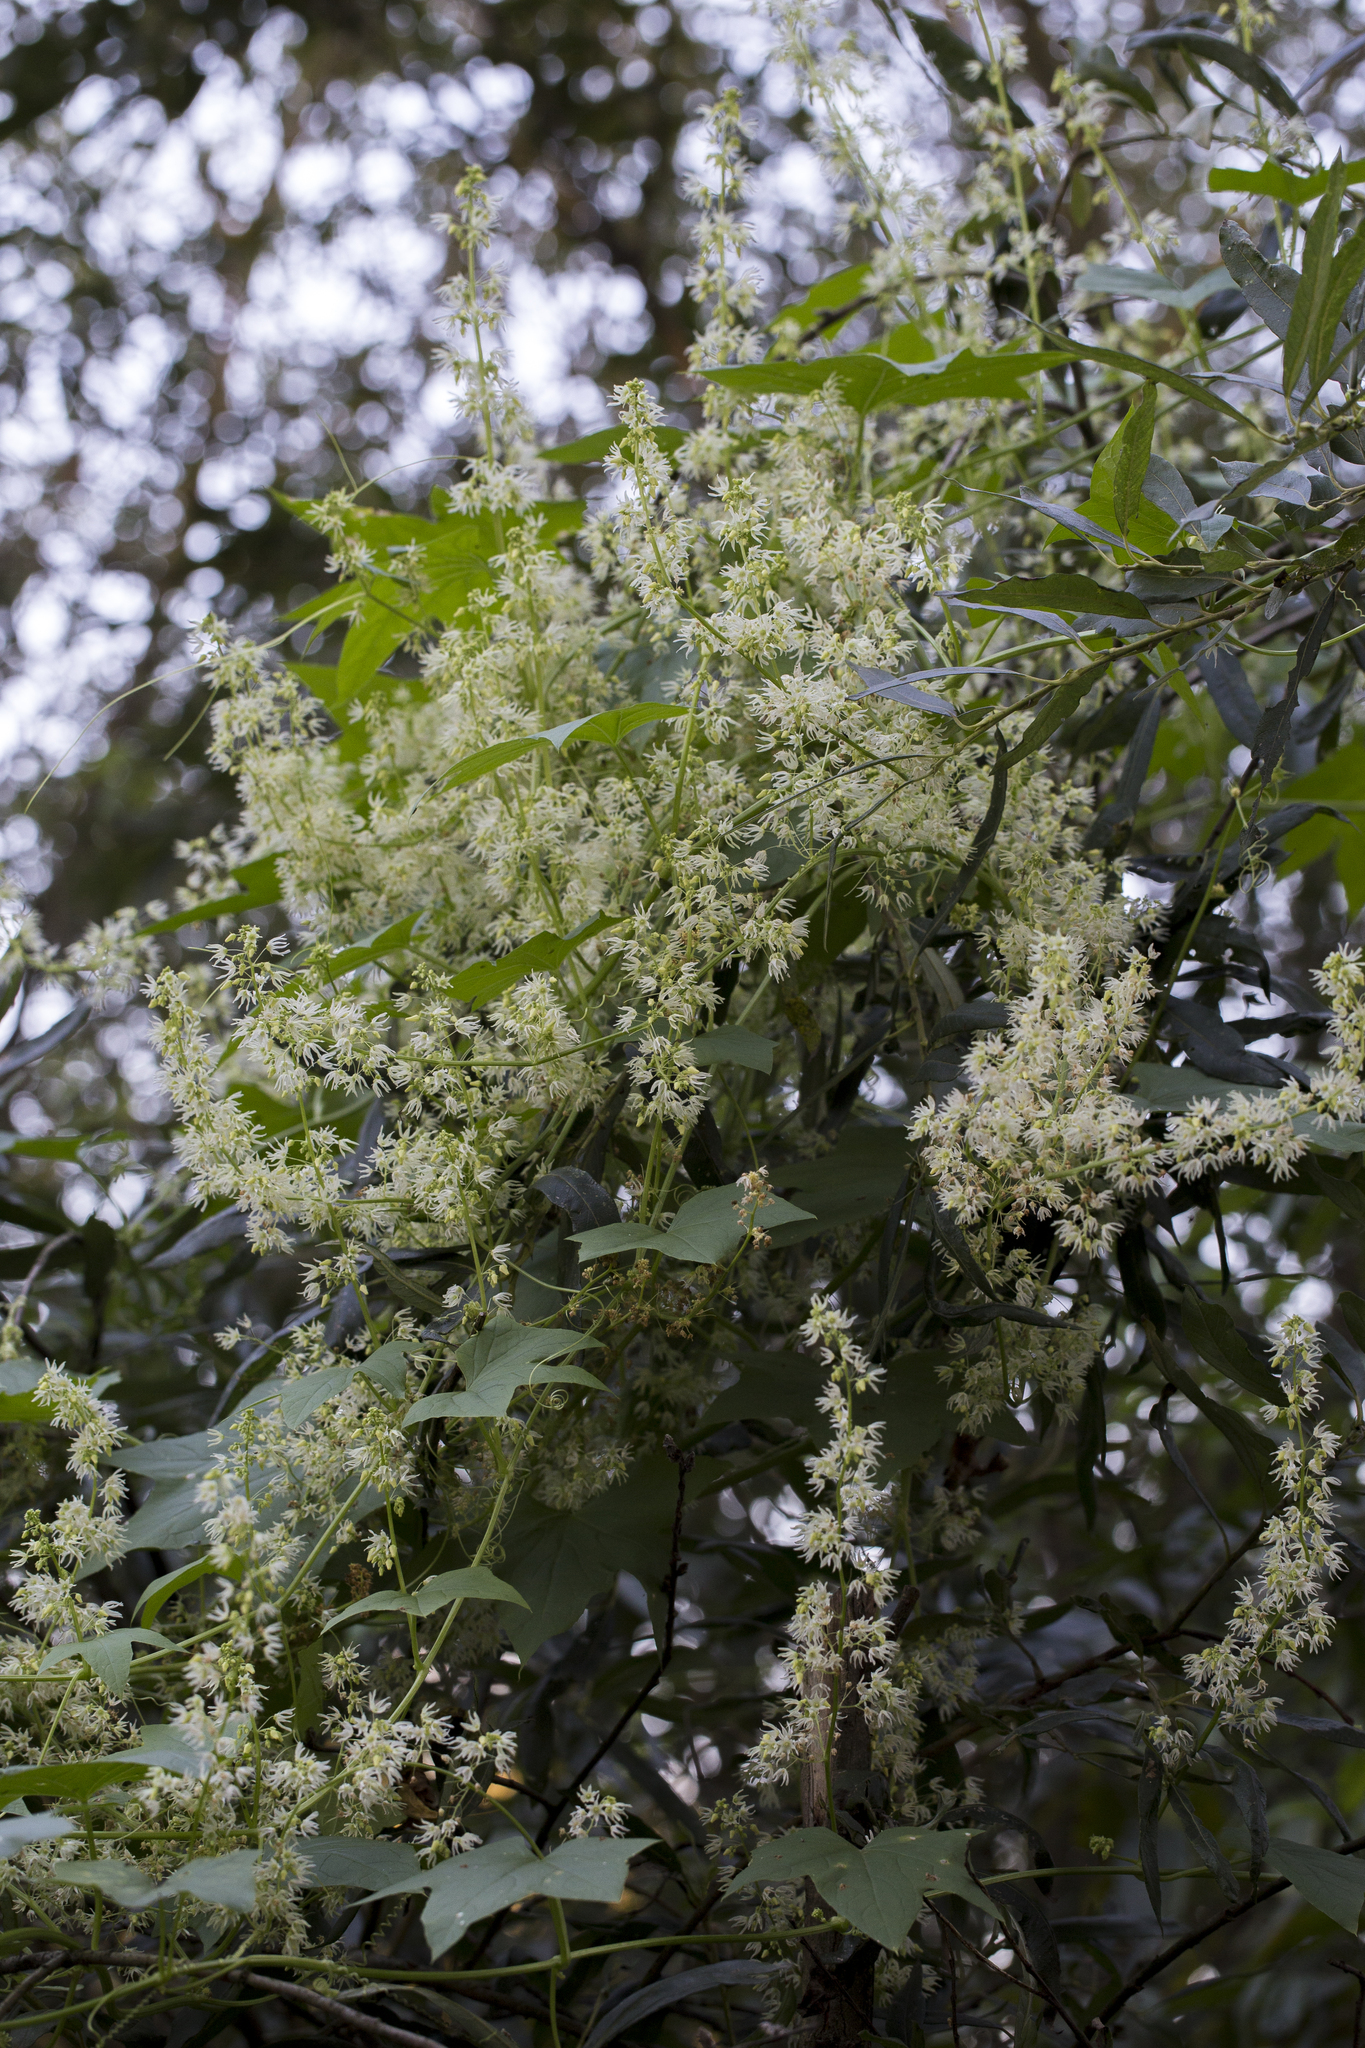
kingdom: Plantae
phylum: Tracheophyta
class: Magnoliopsida
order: Cucurbitales
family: Cucurbitaceae
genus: Echinocystis
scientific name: Echinocystis lobata
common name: Wild cucumber
